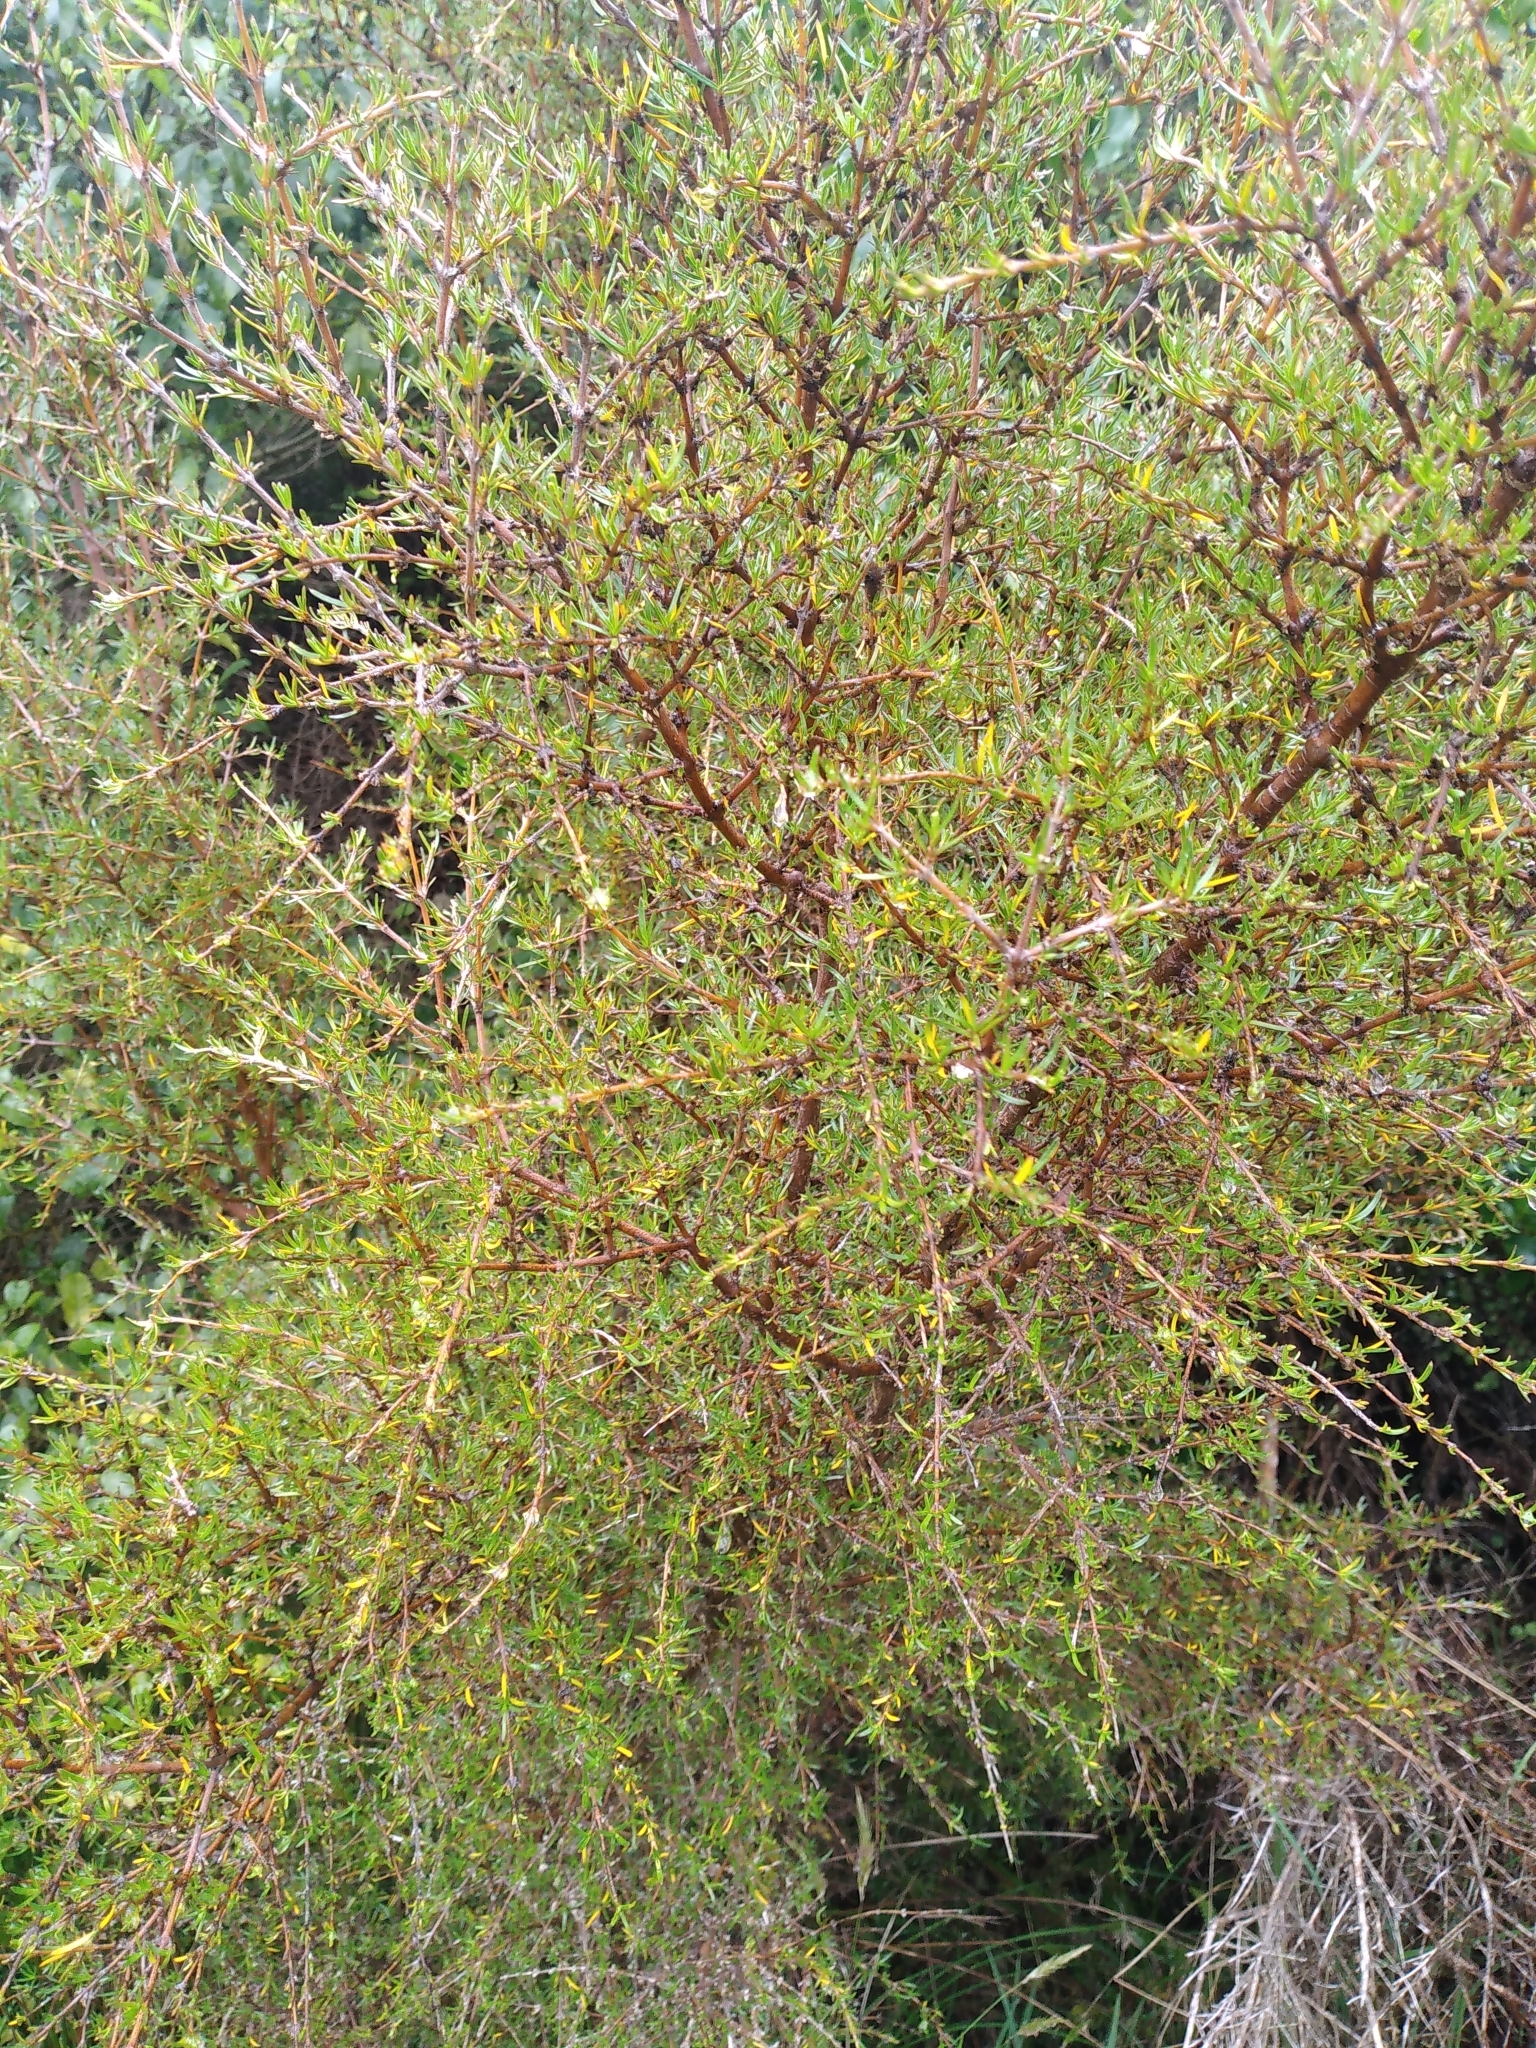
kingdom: Plantae
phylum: Tracheophyta
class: Magnoliopsida
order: Gentianales
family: Rubiaceae
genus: Coprosma
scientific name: Coprosma rugosa
